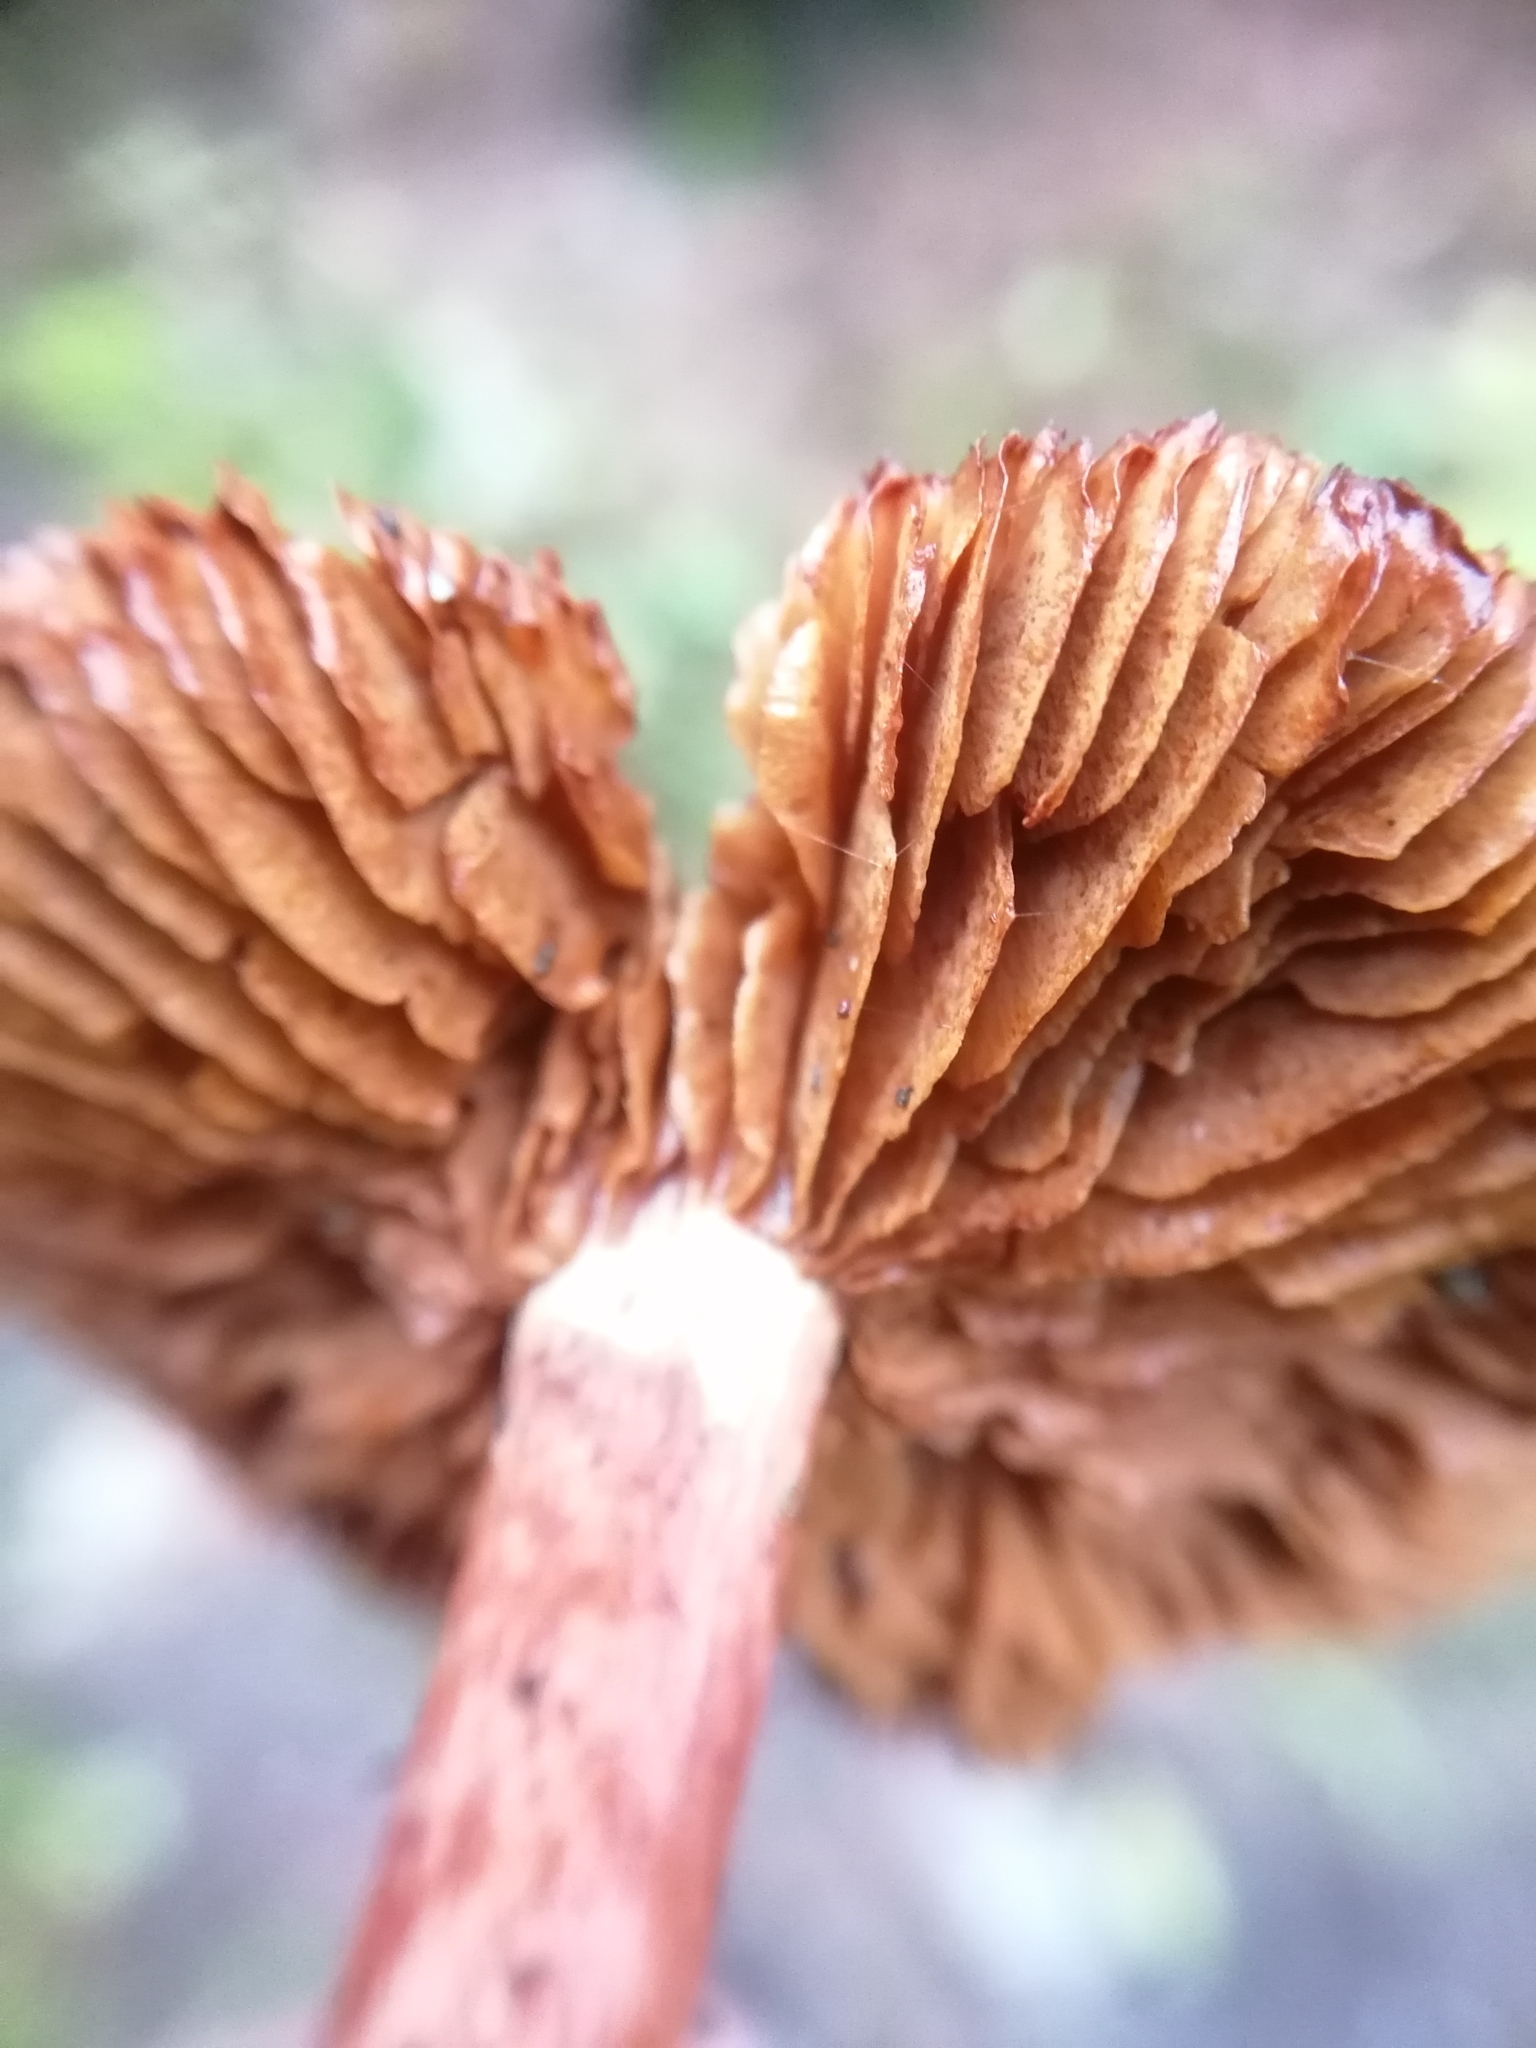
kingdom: Fungi
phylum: Basidiomycota
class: Agaricomycetes
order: Agaricales
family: Cortinariaceae
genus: Cortinarius
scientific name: Cortinarius bolaris
